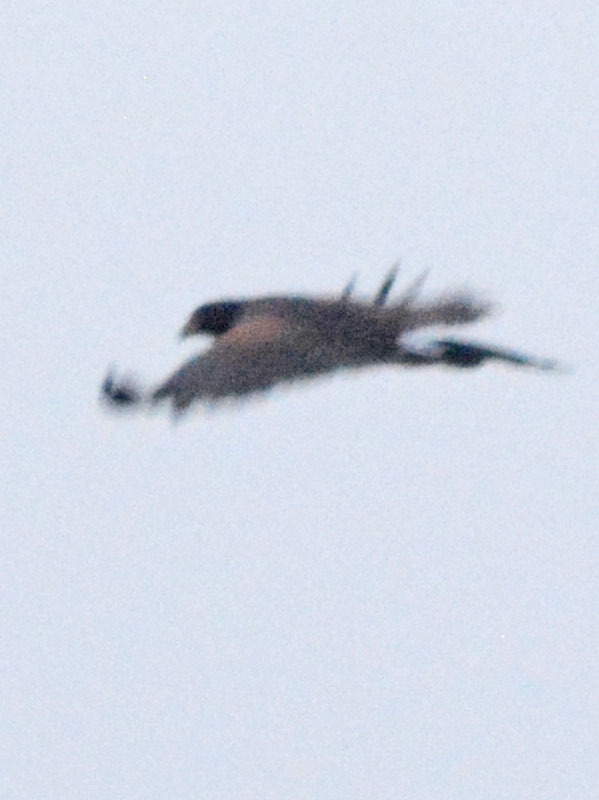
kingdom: Animalia
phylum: Chordata
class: Aves
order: Accipitriformes
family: Accipitridae
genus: Parabuteo
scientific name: Parabuteo unicinctus
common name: Harris's hawk
